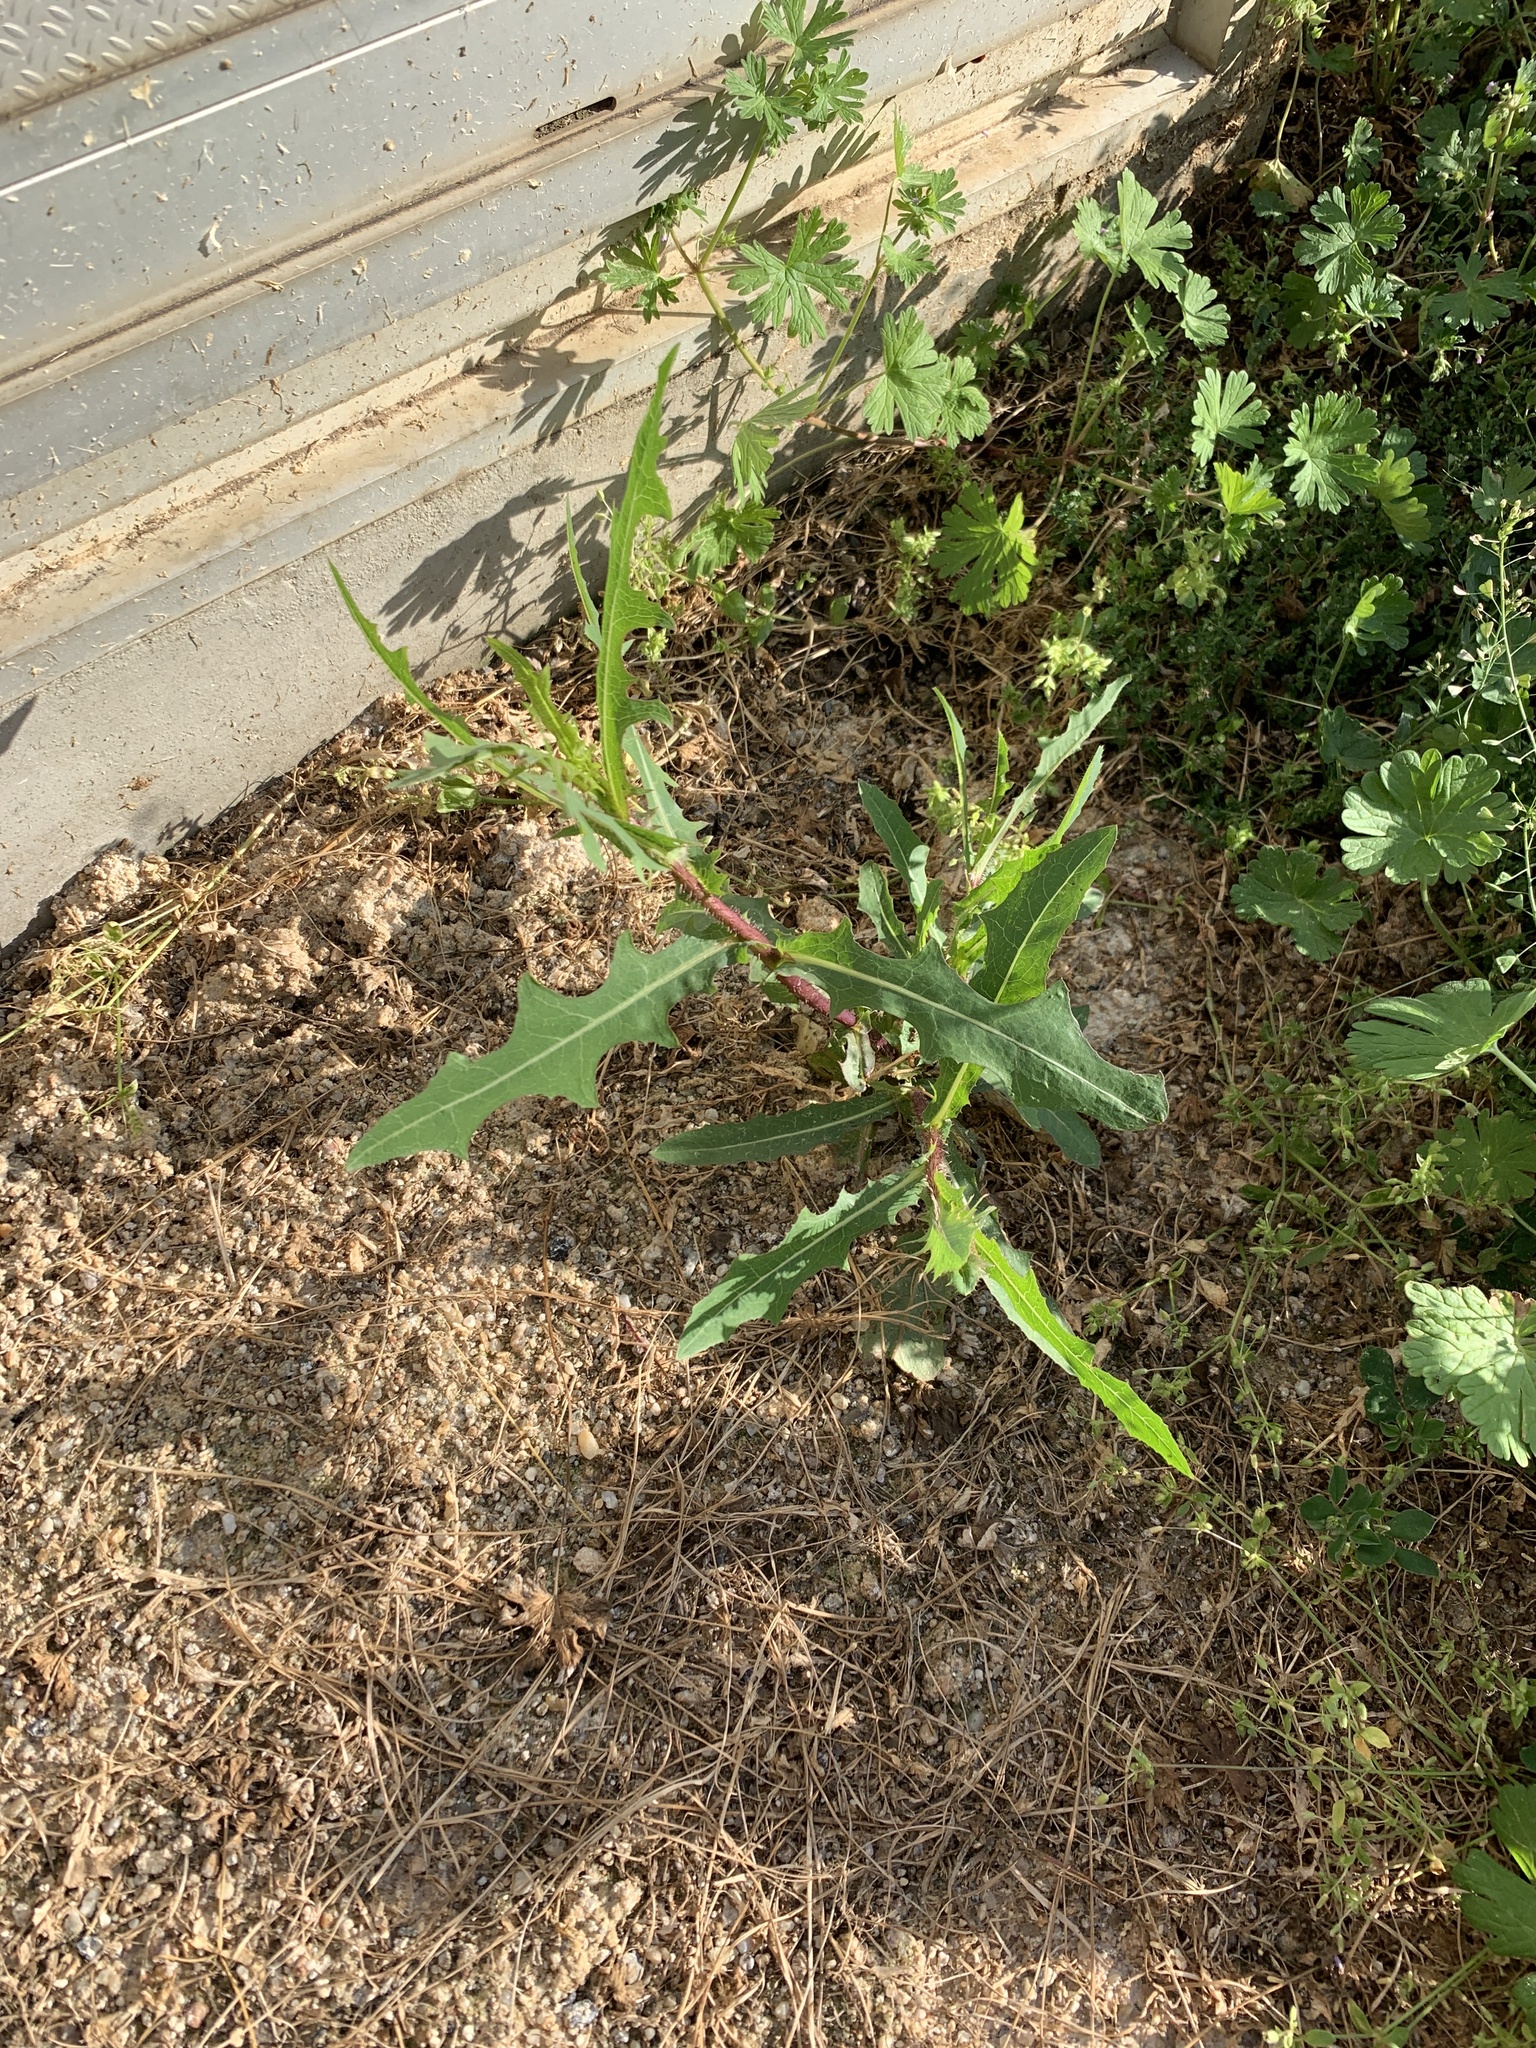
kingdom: Plantae
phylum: Tracheophyta
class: Magnoliopsida
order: Asterales
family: Asteraceae
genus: Lactuca
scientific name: Lactuca serriola
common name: Prickly lettuce
